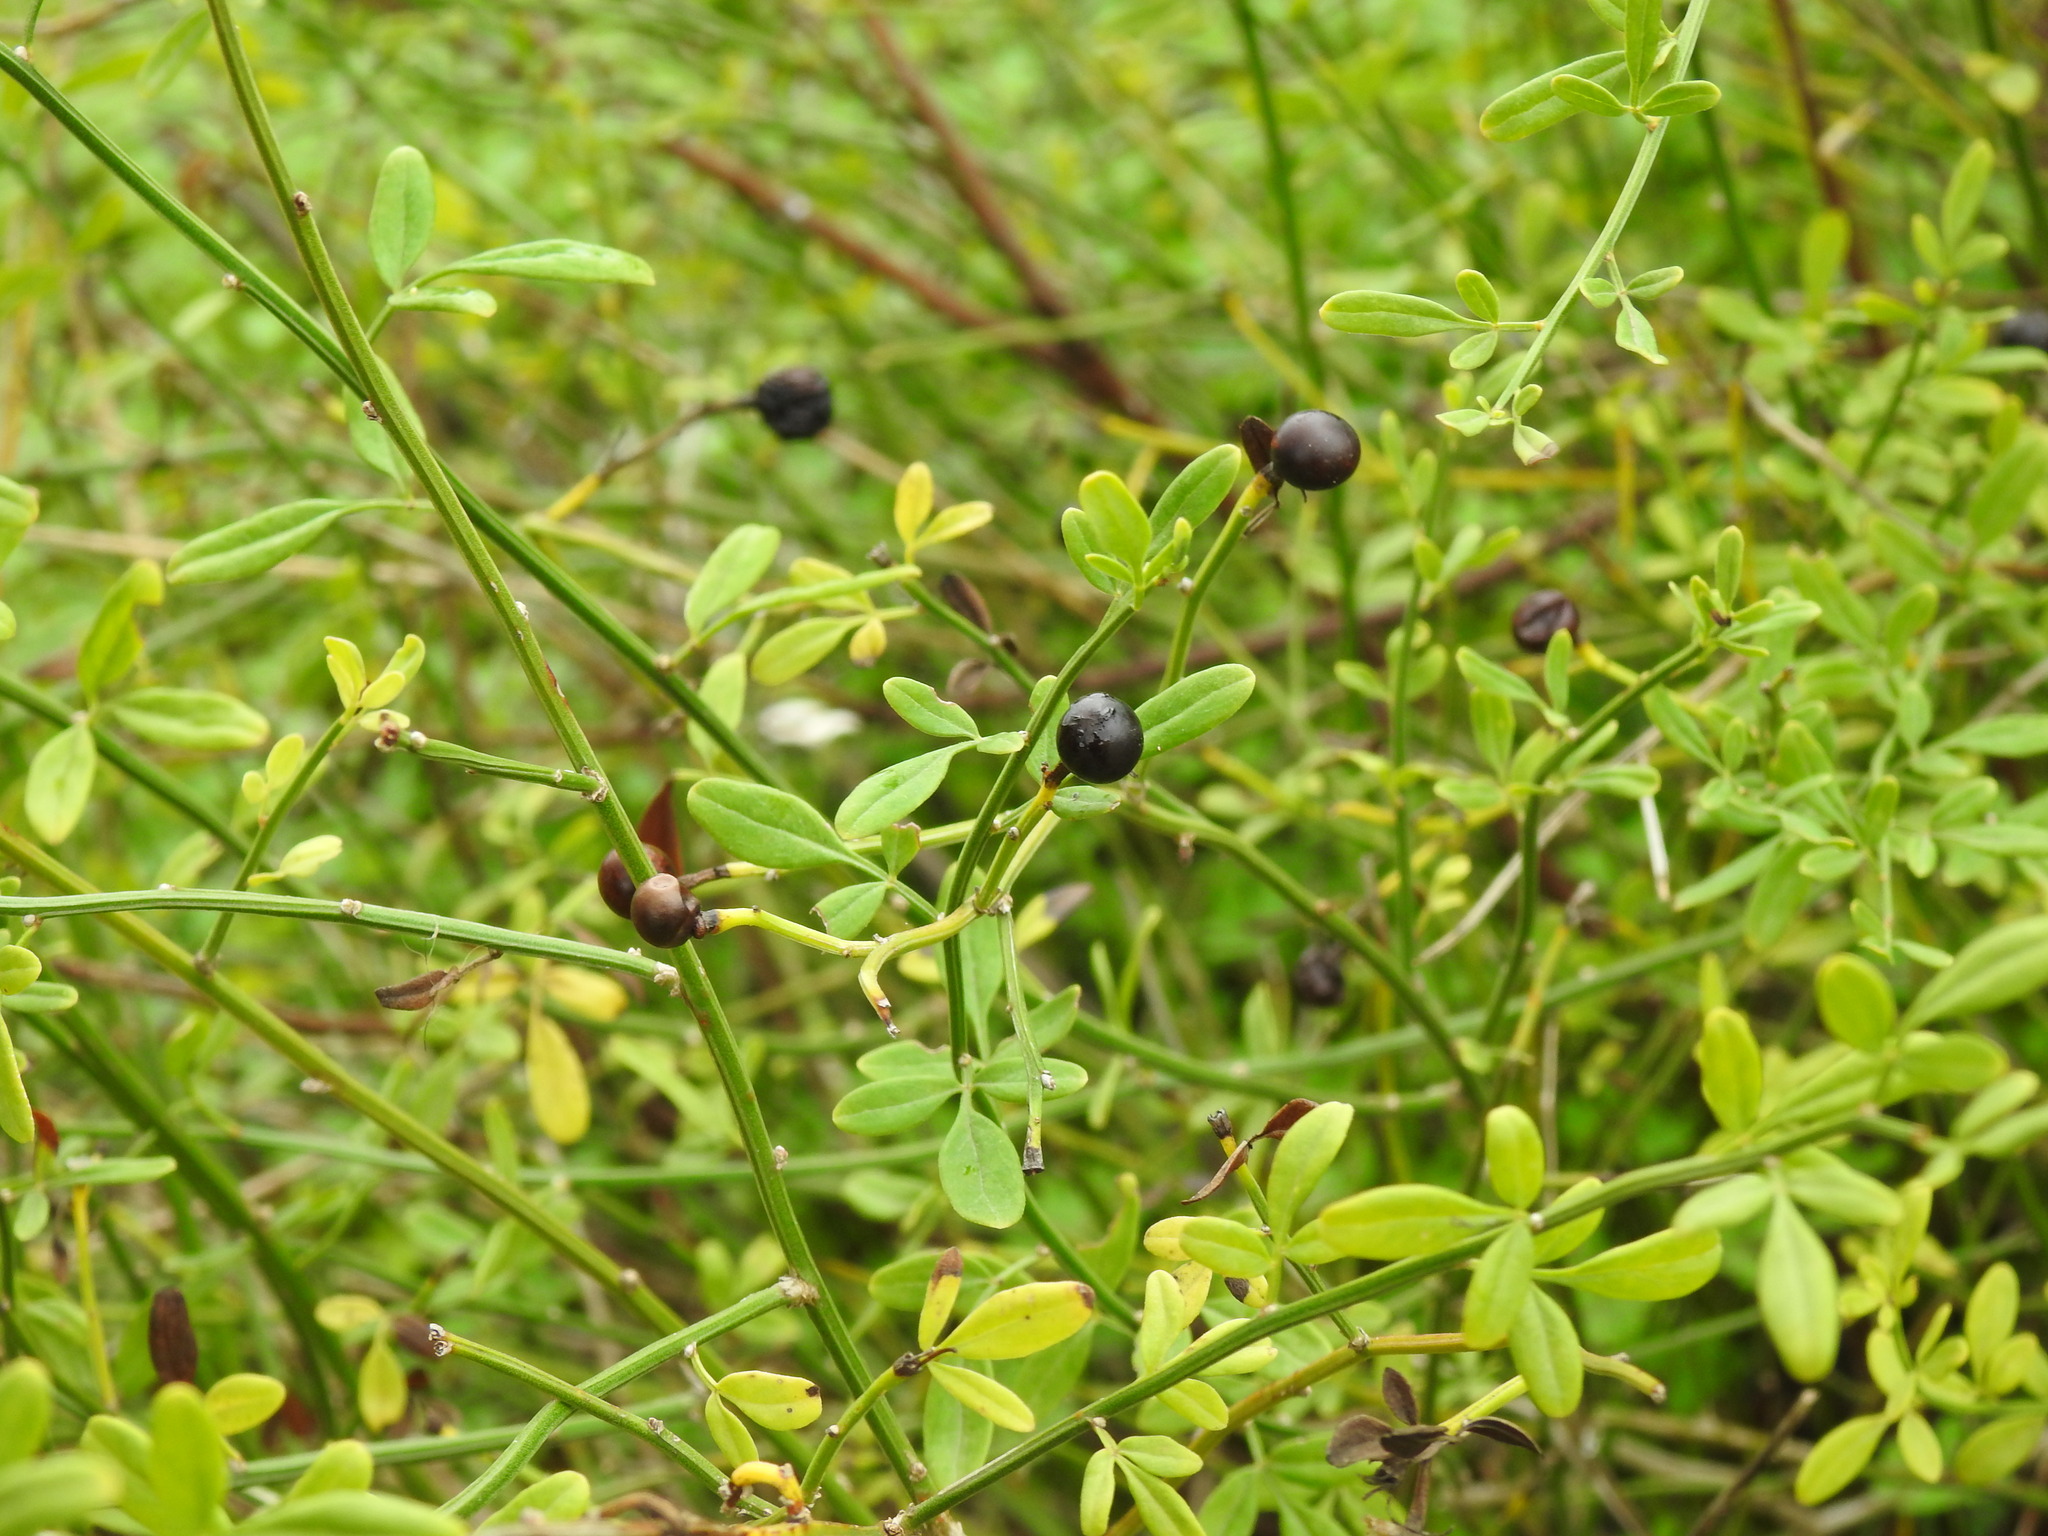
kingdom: Plantae
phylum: Tracheophyta
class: Magnoliopsida
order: Lamiales
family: Oleaceae
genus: Chrysojasminum
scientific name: Chrysojasminum fruticans
